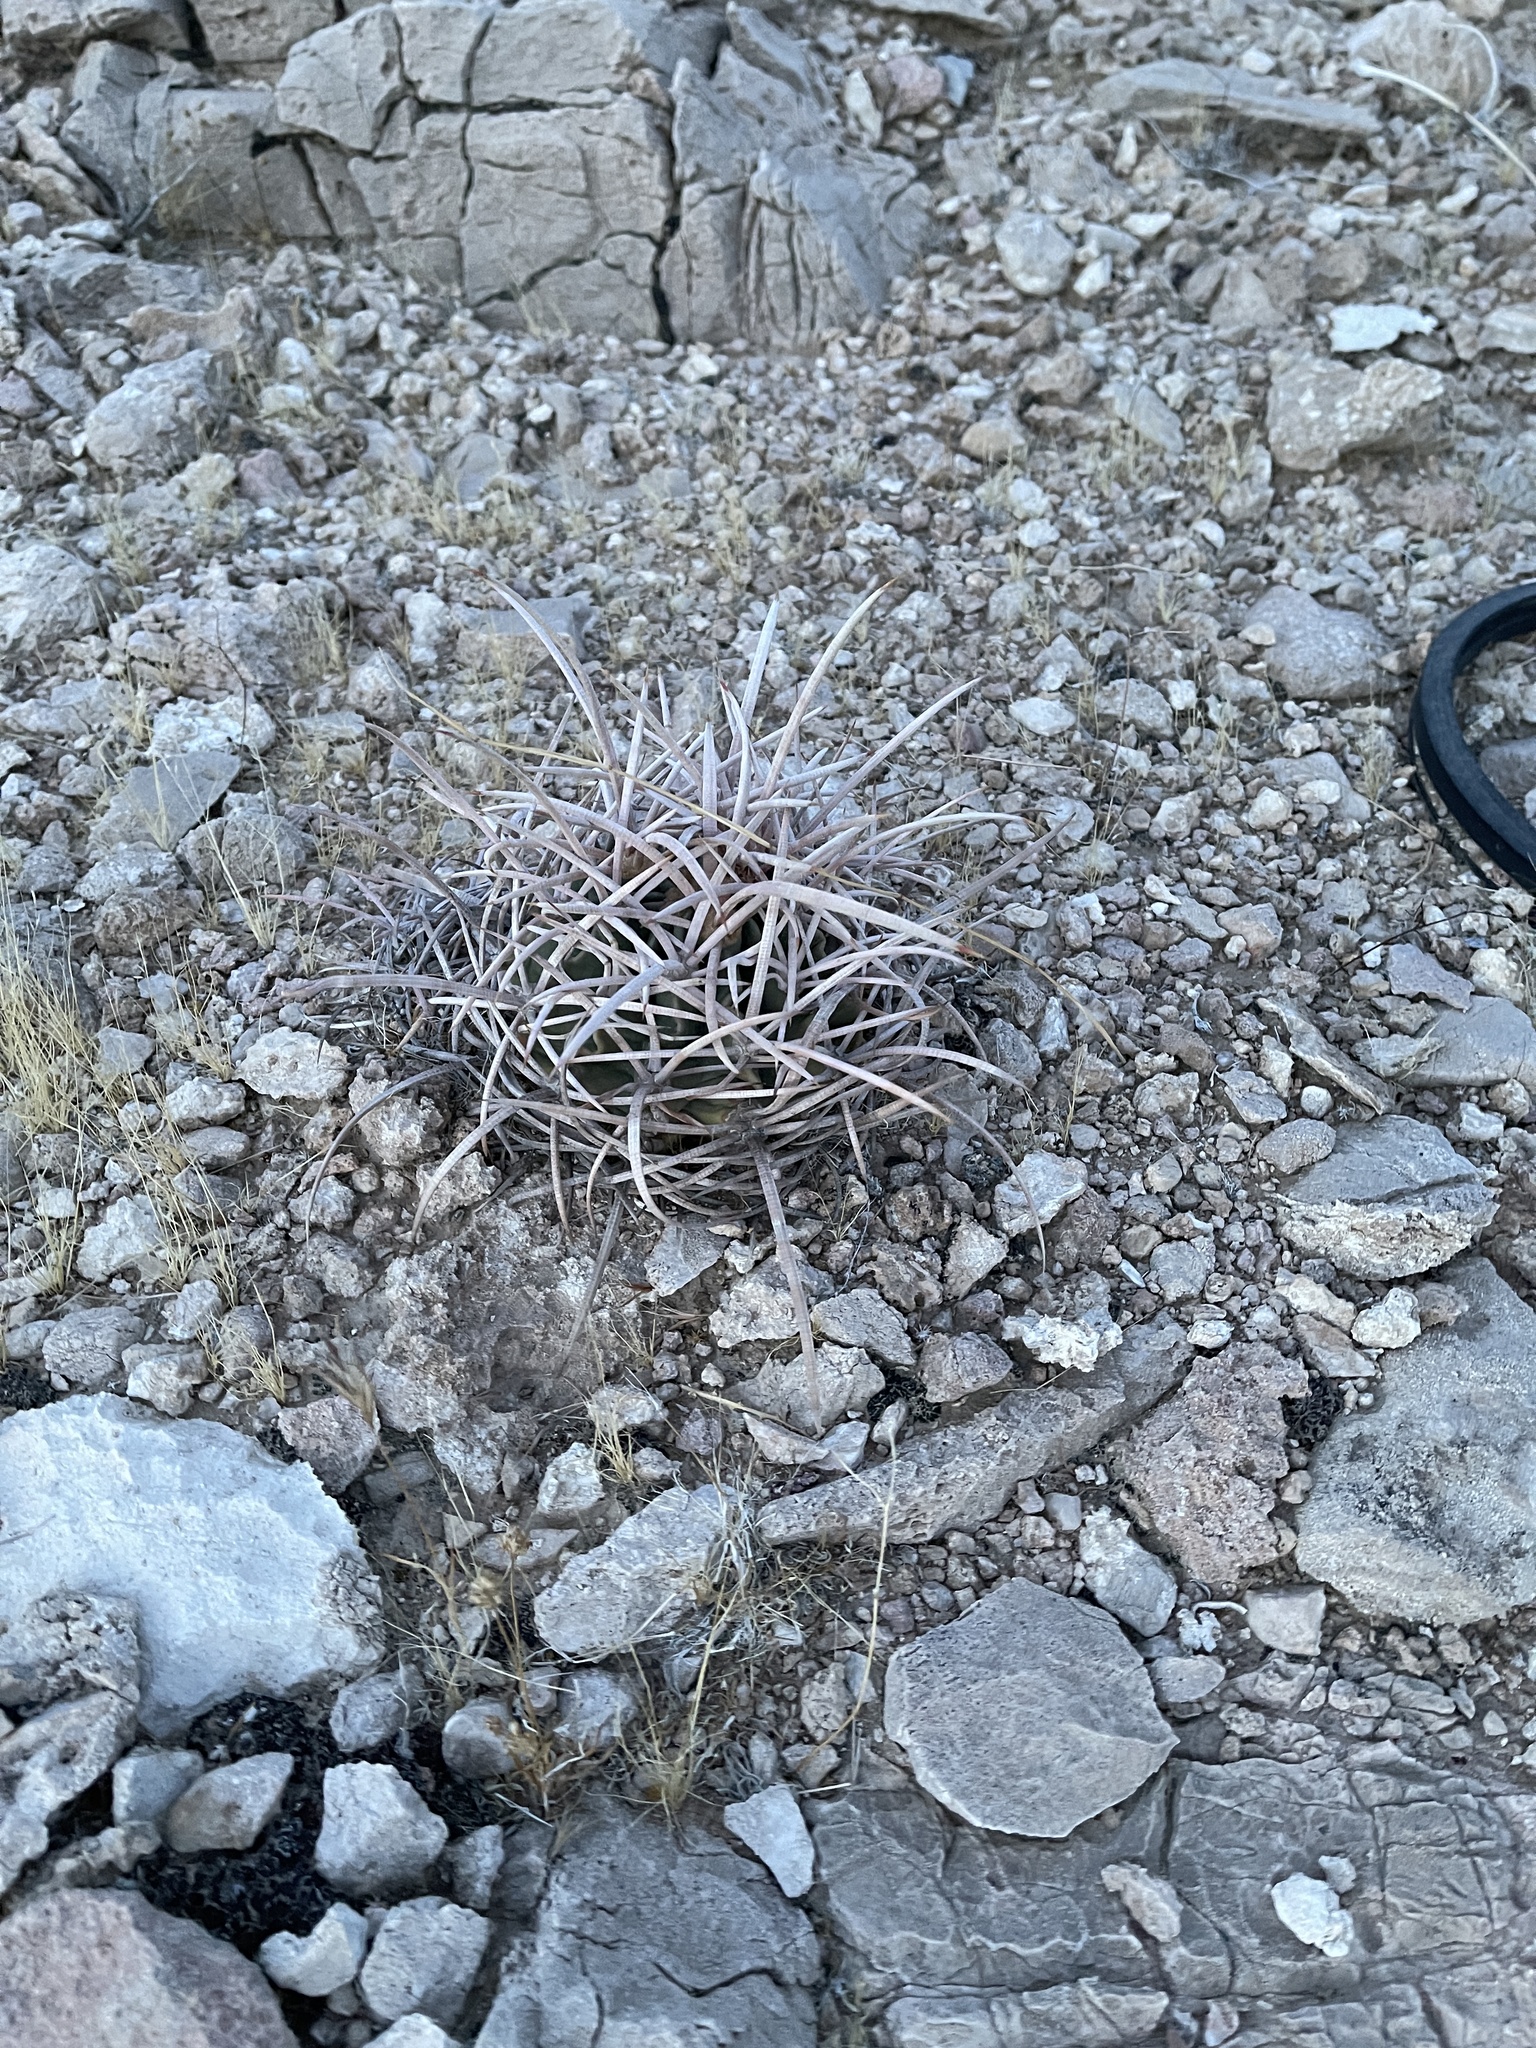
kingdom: Plantae
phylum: Tracheophyta
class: Magnoliopsida
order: Caryophyllales
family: Cactaceae
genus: Echinocactus
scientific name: Echinocactus polycephalus
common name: Cottontop cactus
